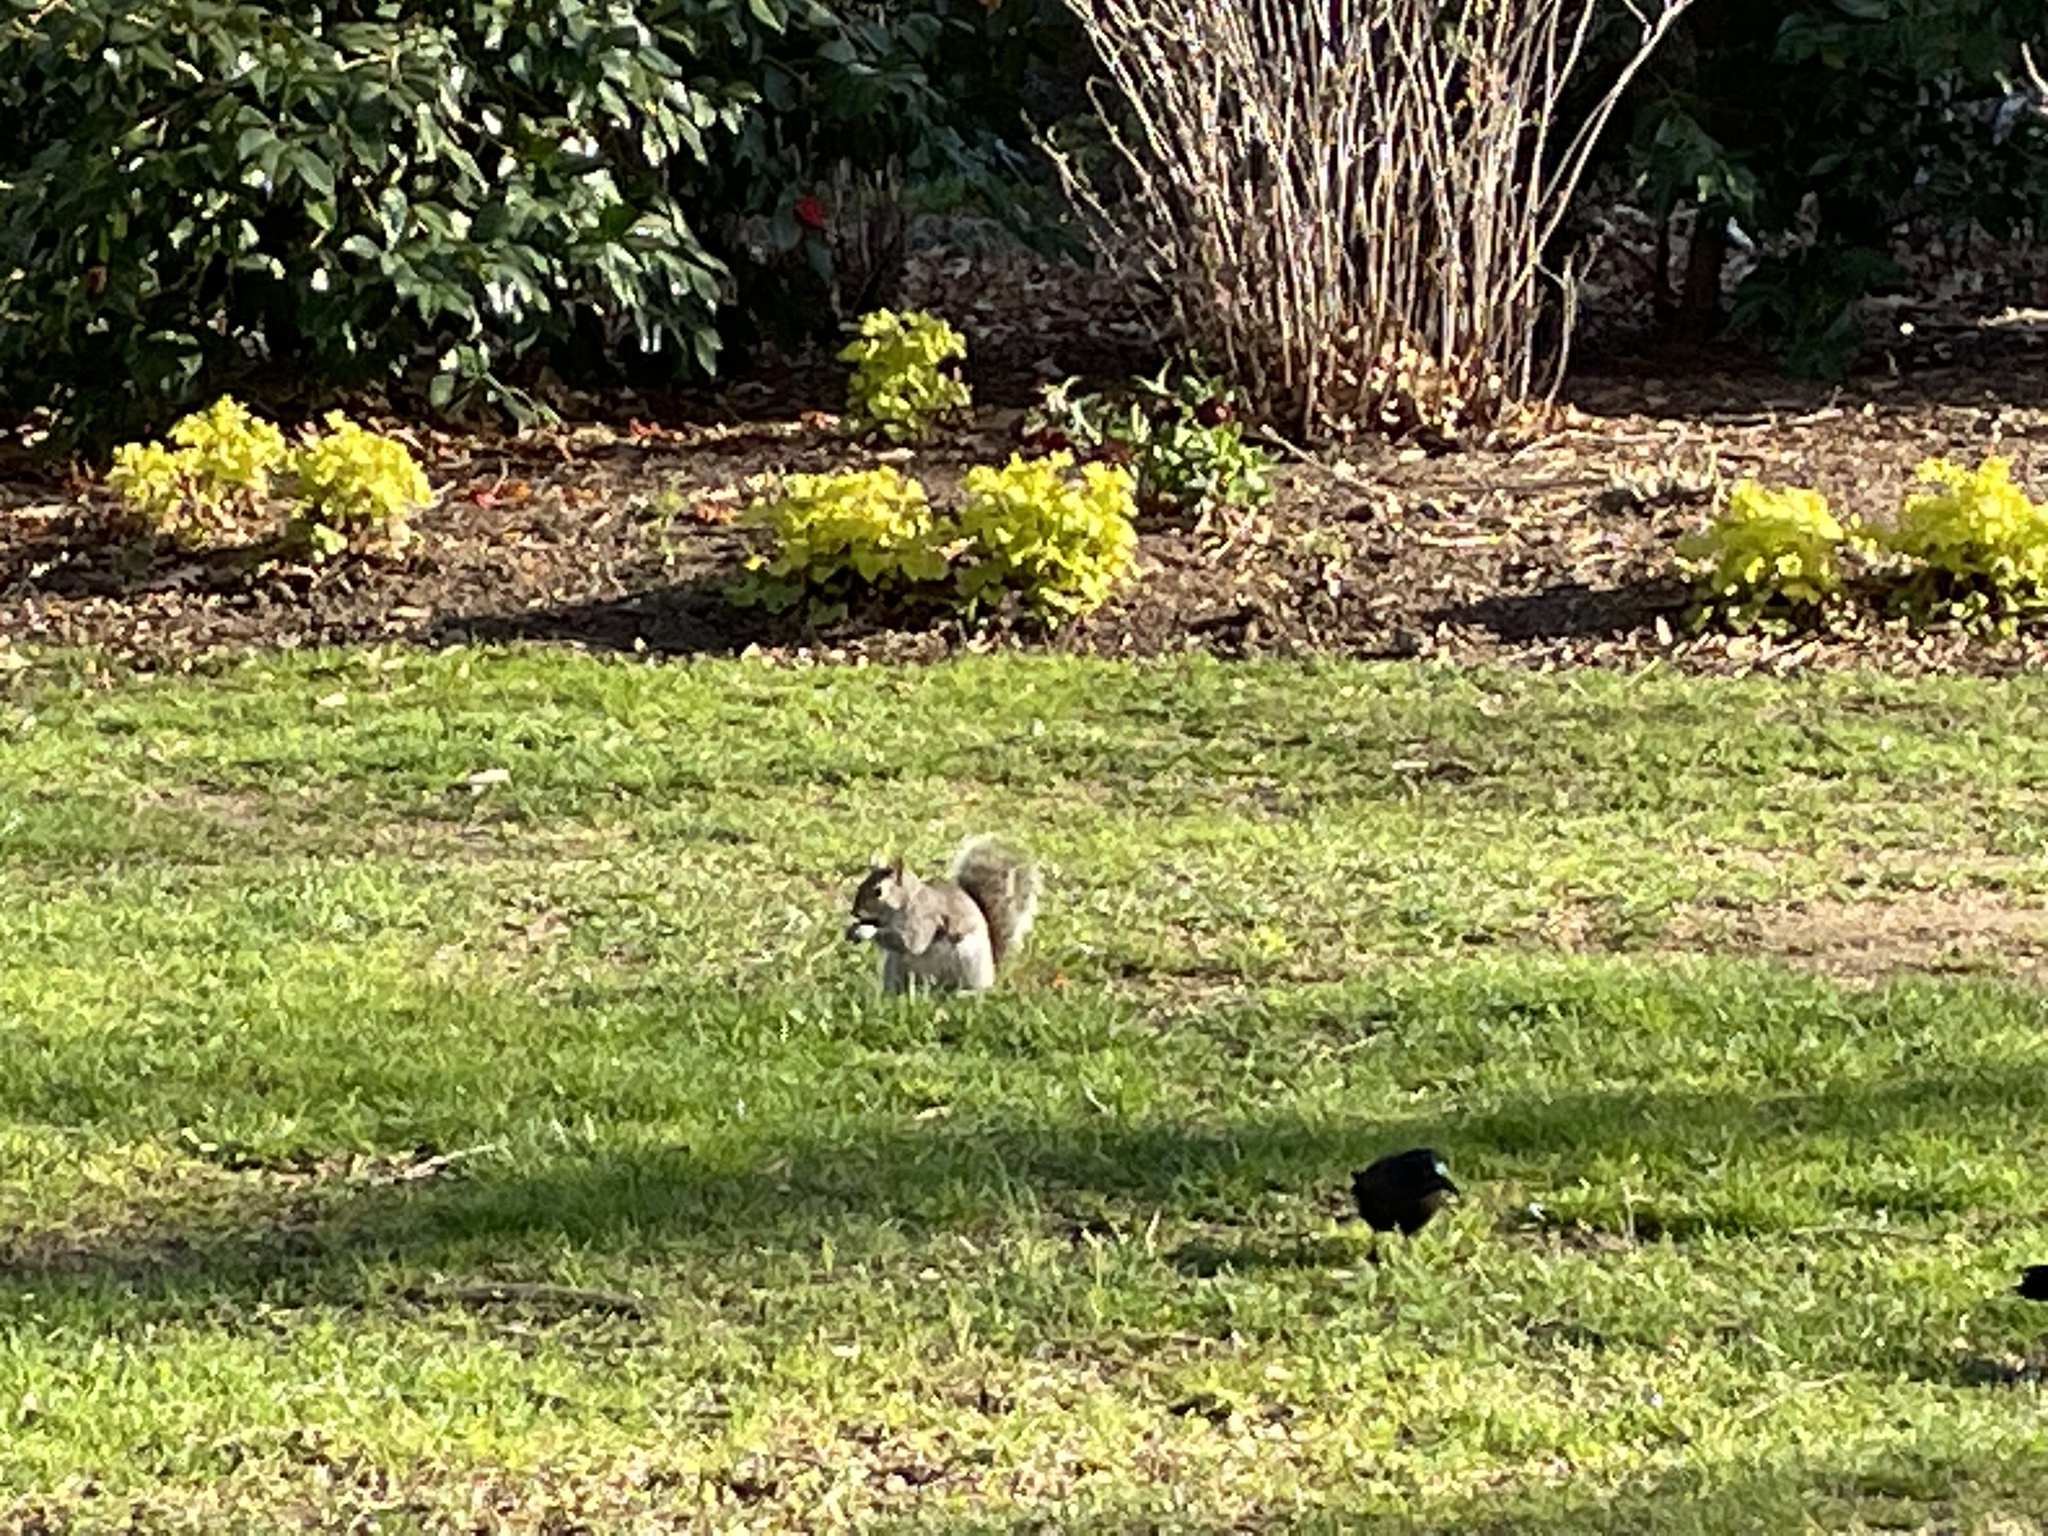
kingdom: Animalia
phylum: Chordata
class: Mammalia
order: Rodentia
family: Sciuridae
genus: Sciurus
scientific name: Sciurus carolinensis
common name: Eastern gray squirrel
